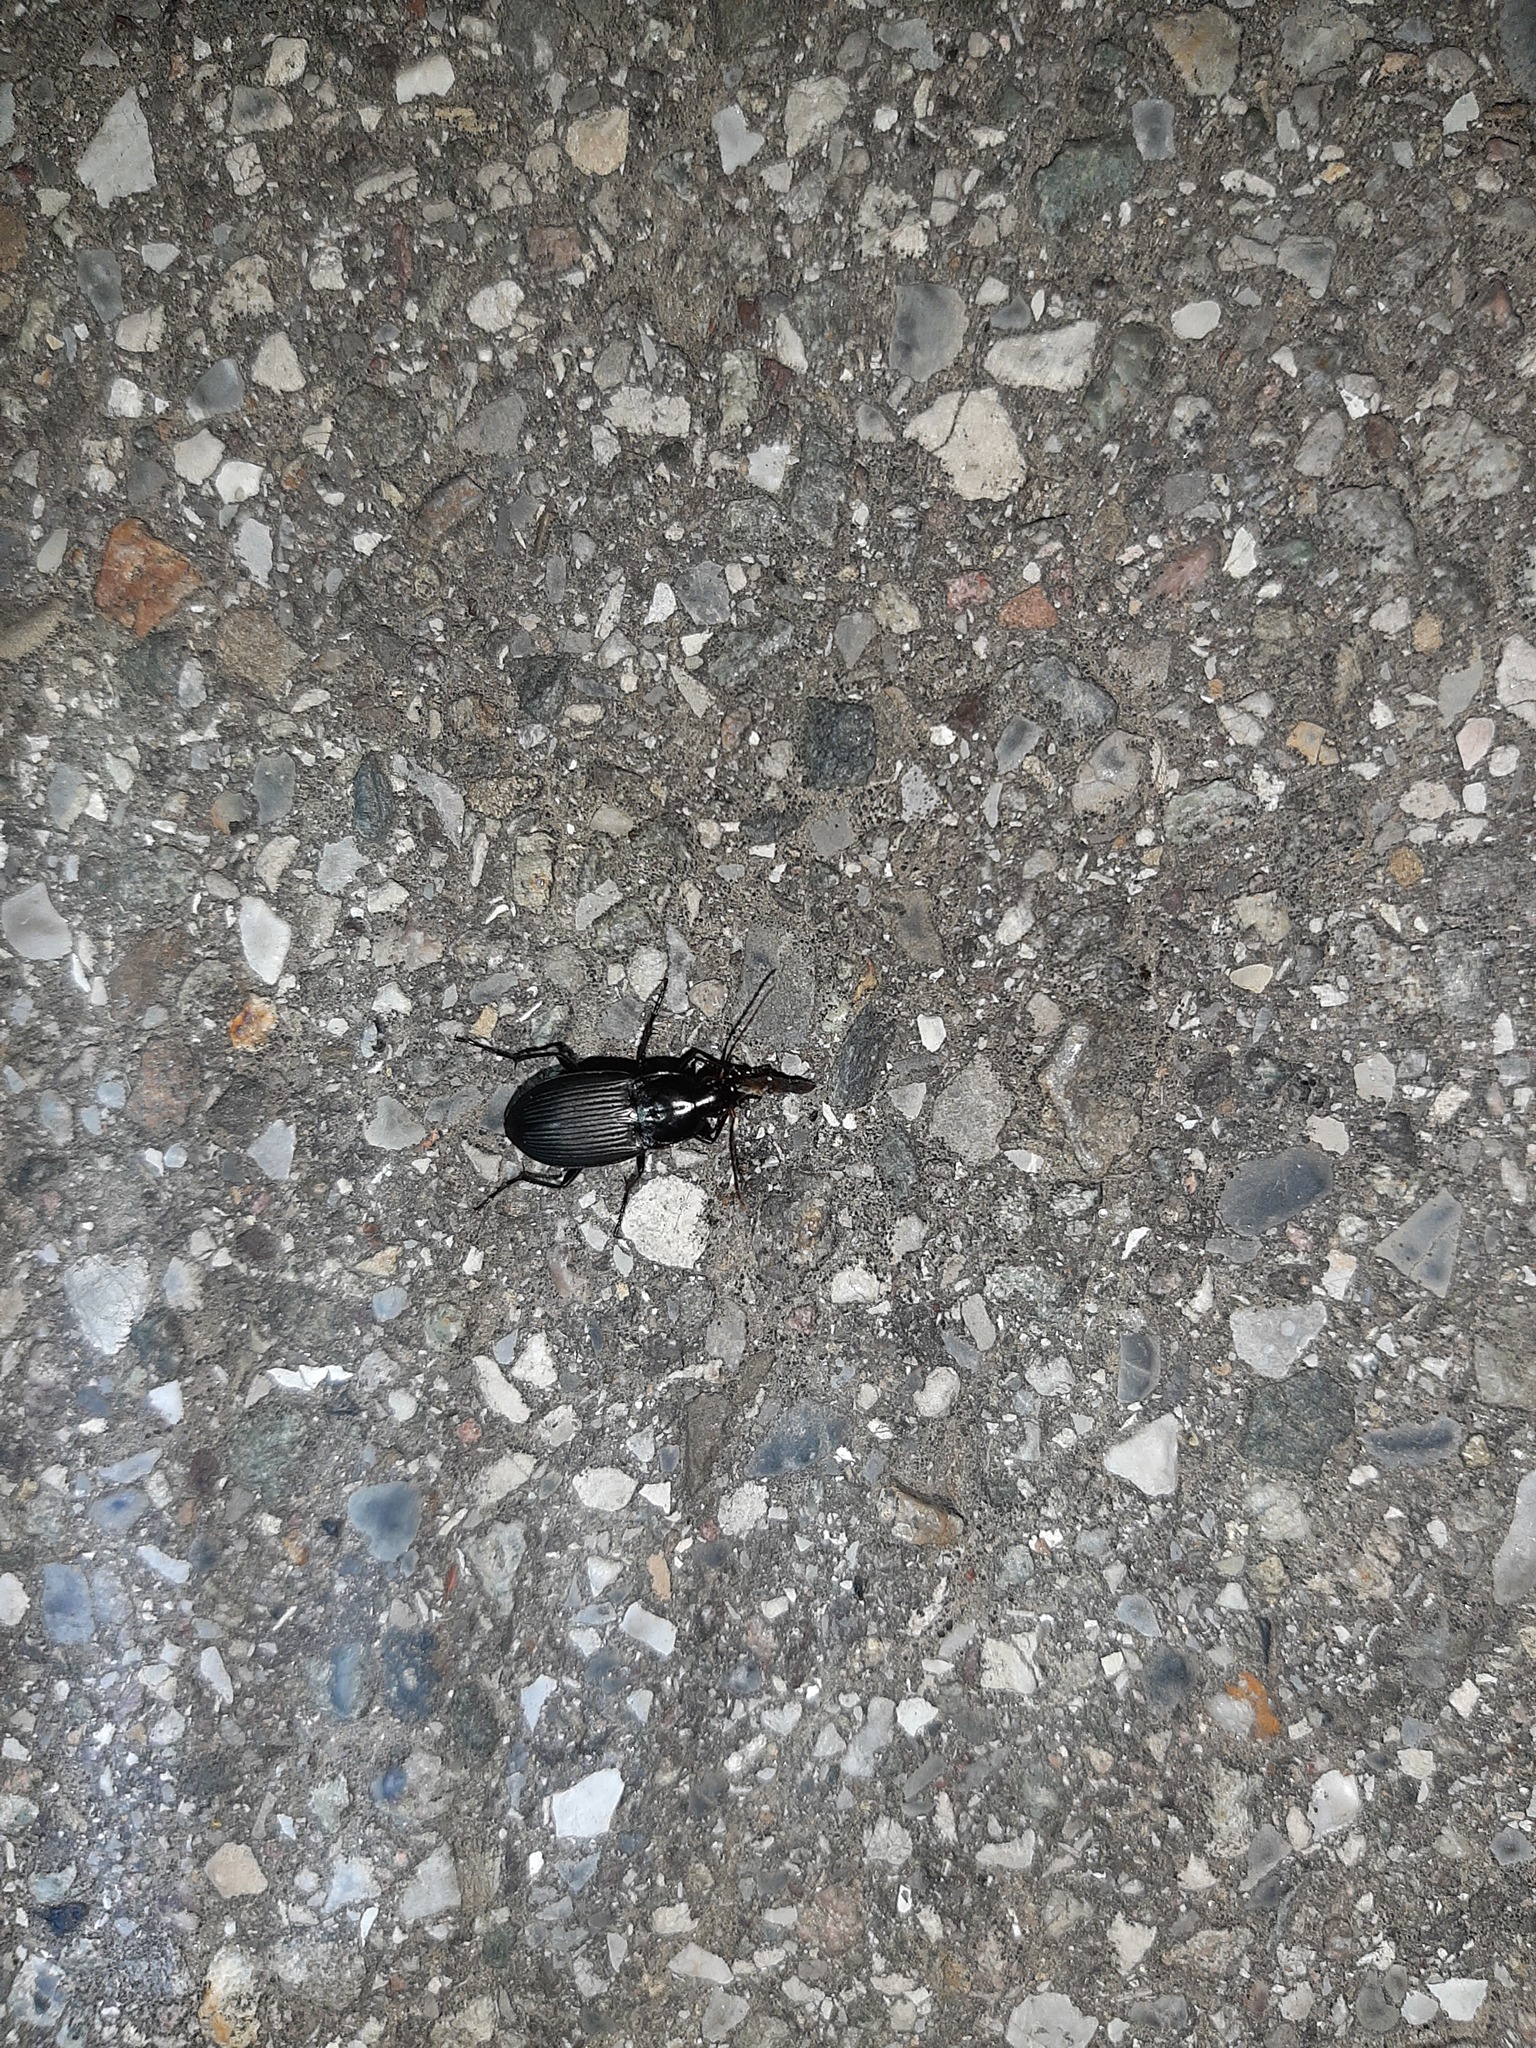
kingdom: Animalia
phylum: Arthropoda
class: Insecta
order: Coleoptera
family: Carabidae
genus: Calathus
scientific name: Calathus fuscipes
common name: Dark-footed harp ground beetle
